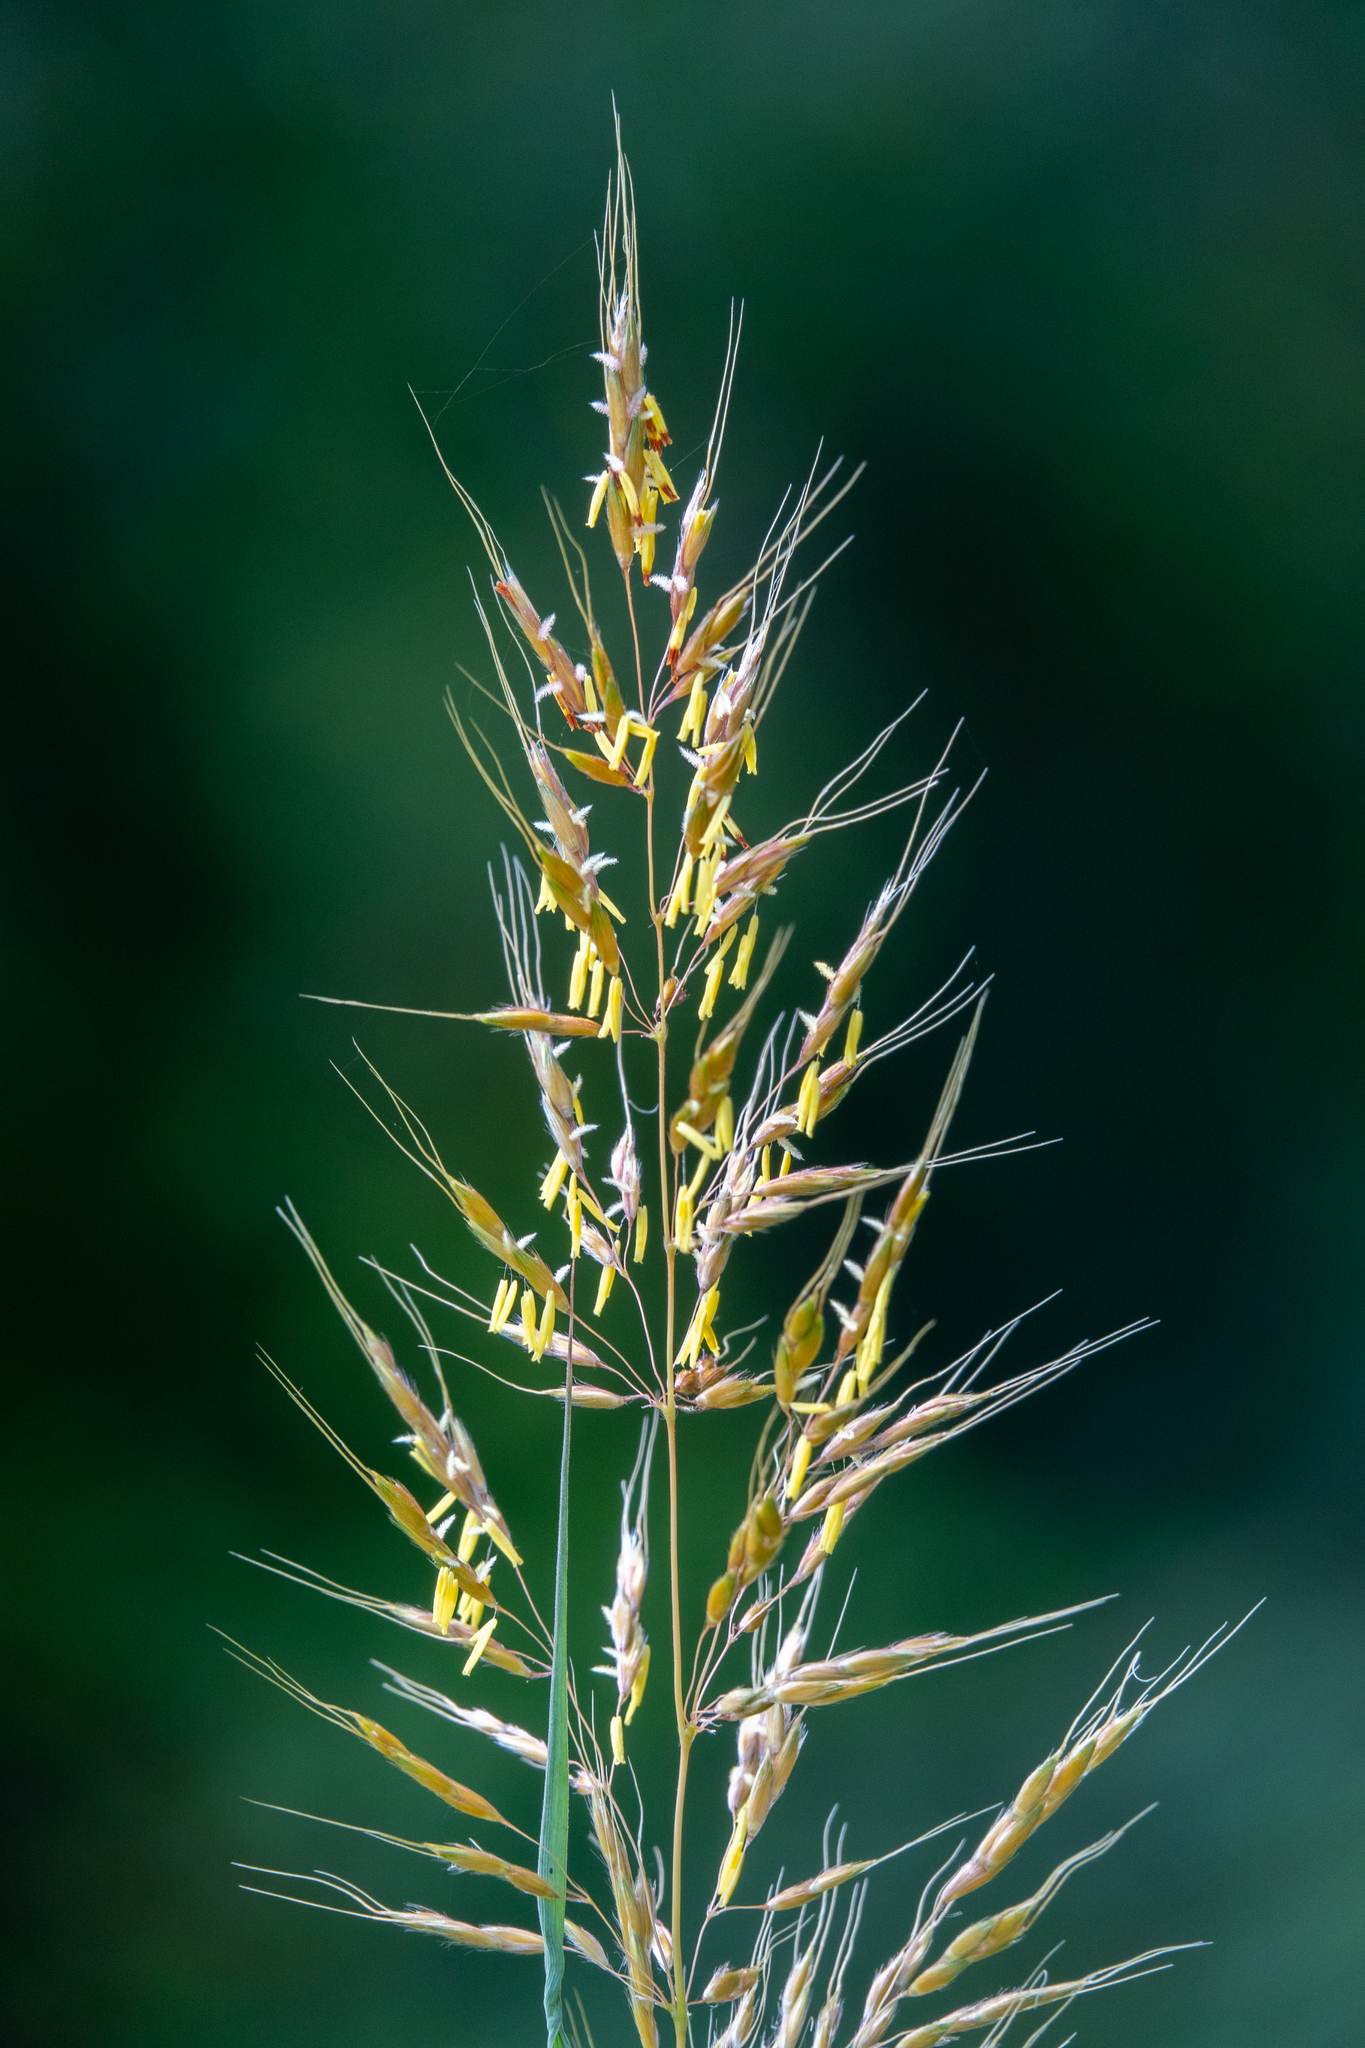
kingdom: Plantae
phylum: Tracheophyta
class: Liliopsida
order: Poales
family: Poaceae
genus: Sorghastrum
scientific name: Sorghastrum nutans
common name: Indian grass
